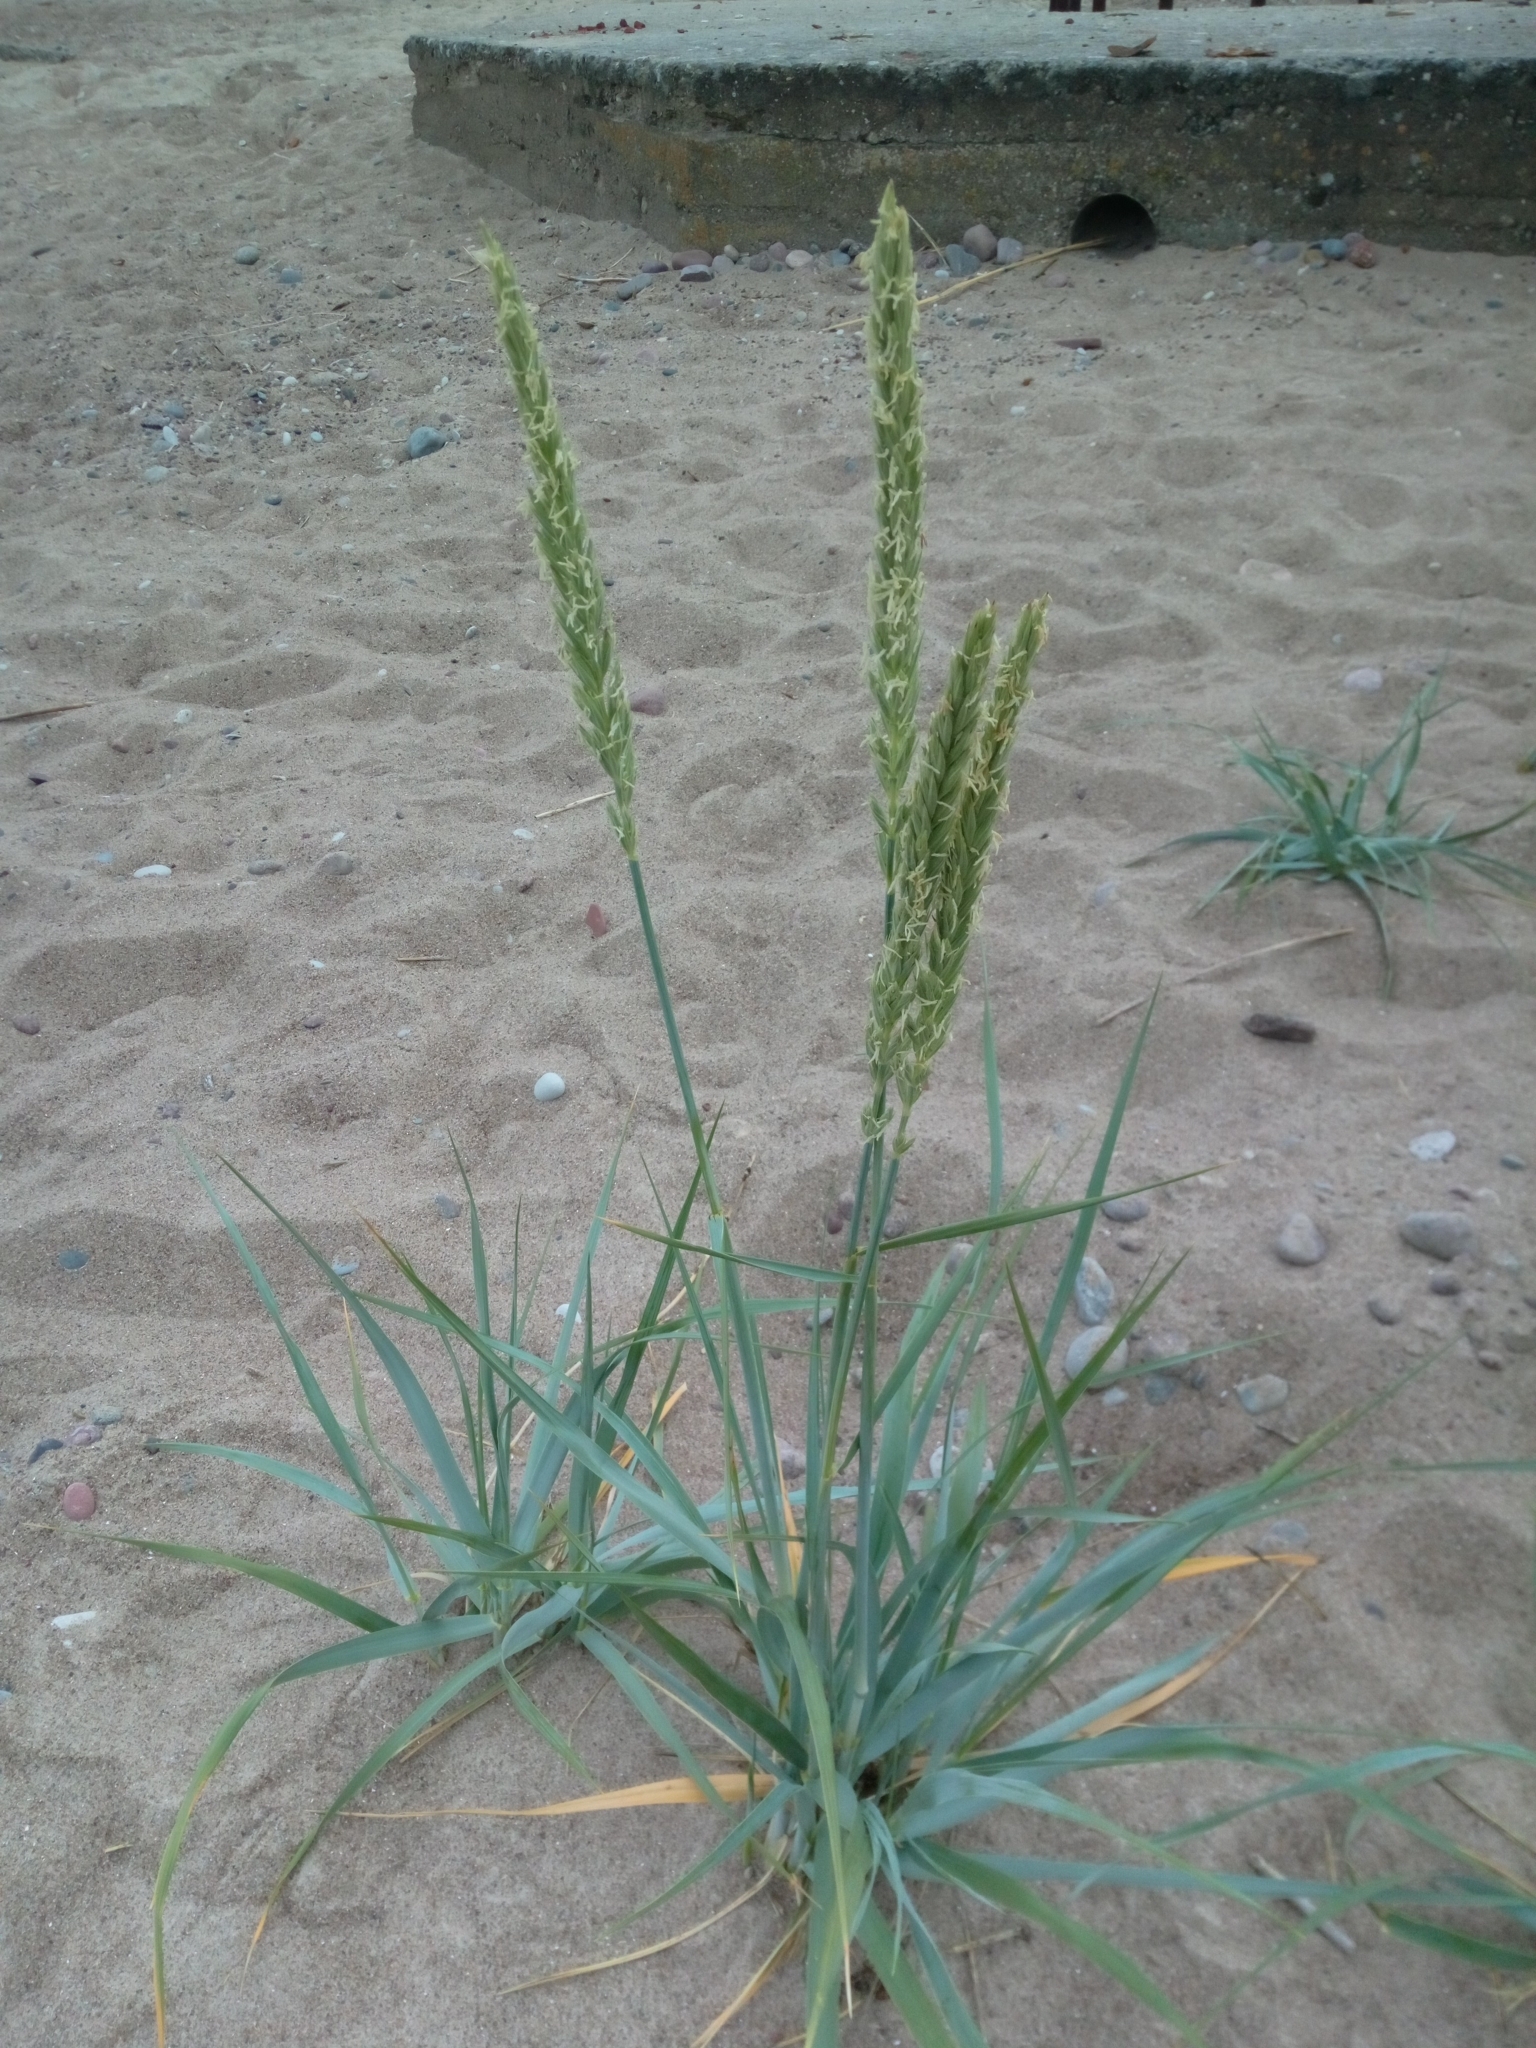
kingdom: Plantae
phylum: Tracheophyta
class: Liliopsida
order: Poales
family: Poaceae
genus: Leymus
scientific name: Leymus arenarius
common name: Lyme-grass
